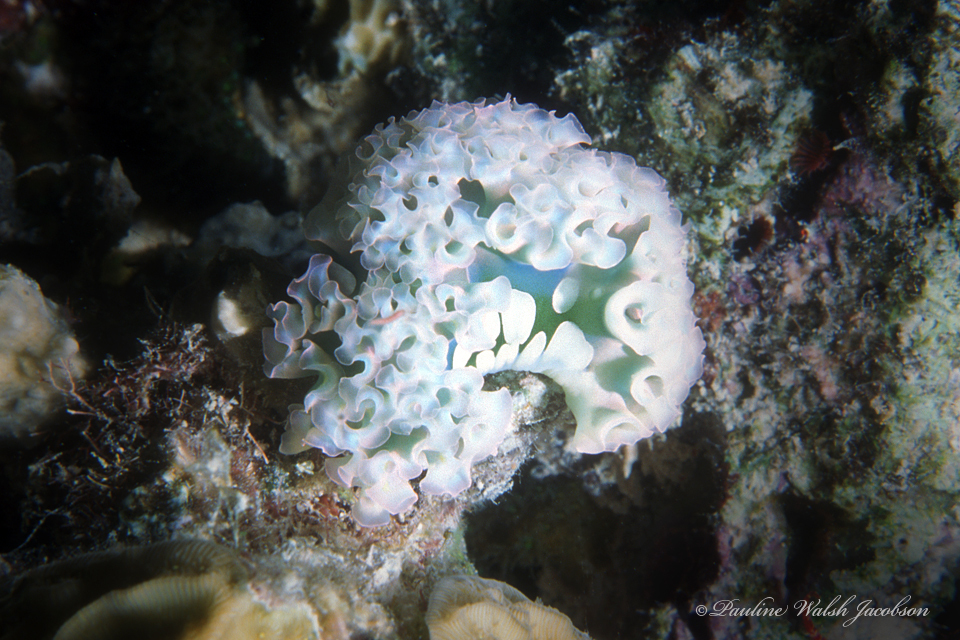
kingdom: Animalia
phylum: Mollusca
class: Gastropoda
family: Plakobranchidae
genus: Elysia
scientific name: Elysia crispata
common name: Lettuce slug
